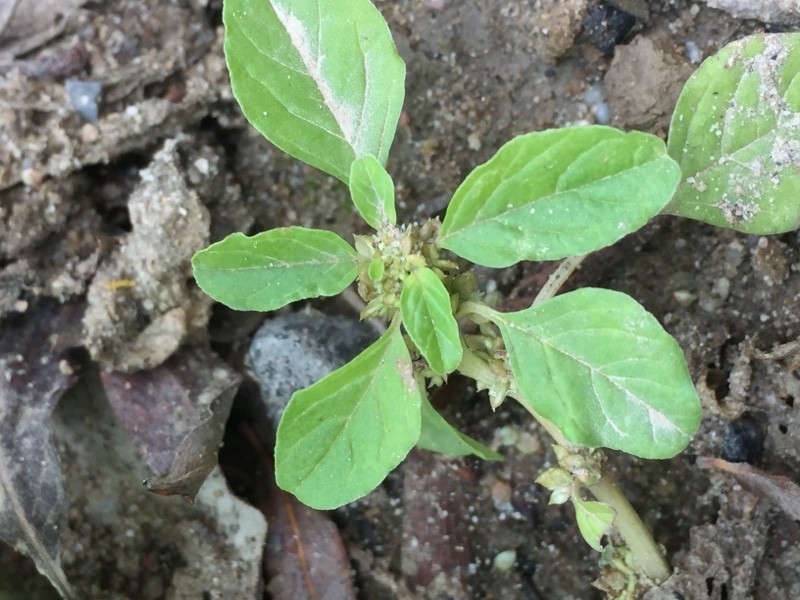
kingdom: Plantae
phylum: Tracheophyta
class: Magnoliopsida
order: Caryophyllales
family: Amaranthaceae
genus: Amaranthus
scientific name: Amaranthus blitum
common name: Purple amaranth
